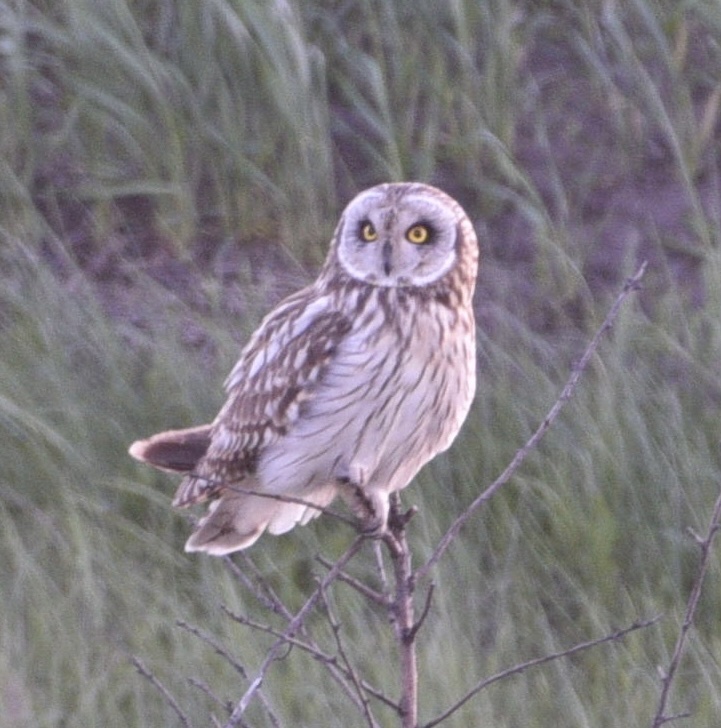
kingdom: Animalia
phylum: Chordata
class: Aves
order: Strigiformes
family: Strigidae
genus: Asio
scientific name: Asio flammeus
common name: Short-eared owl
